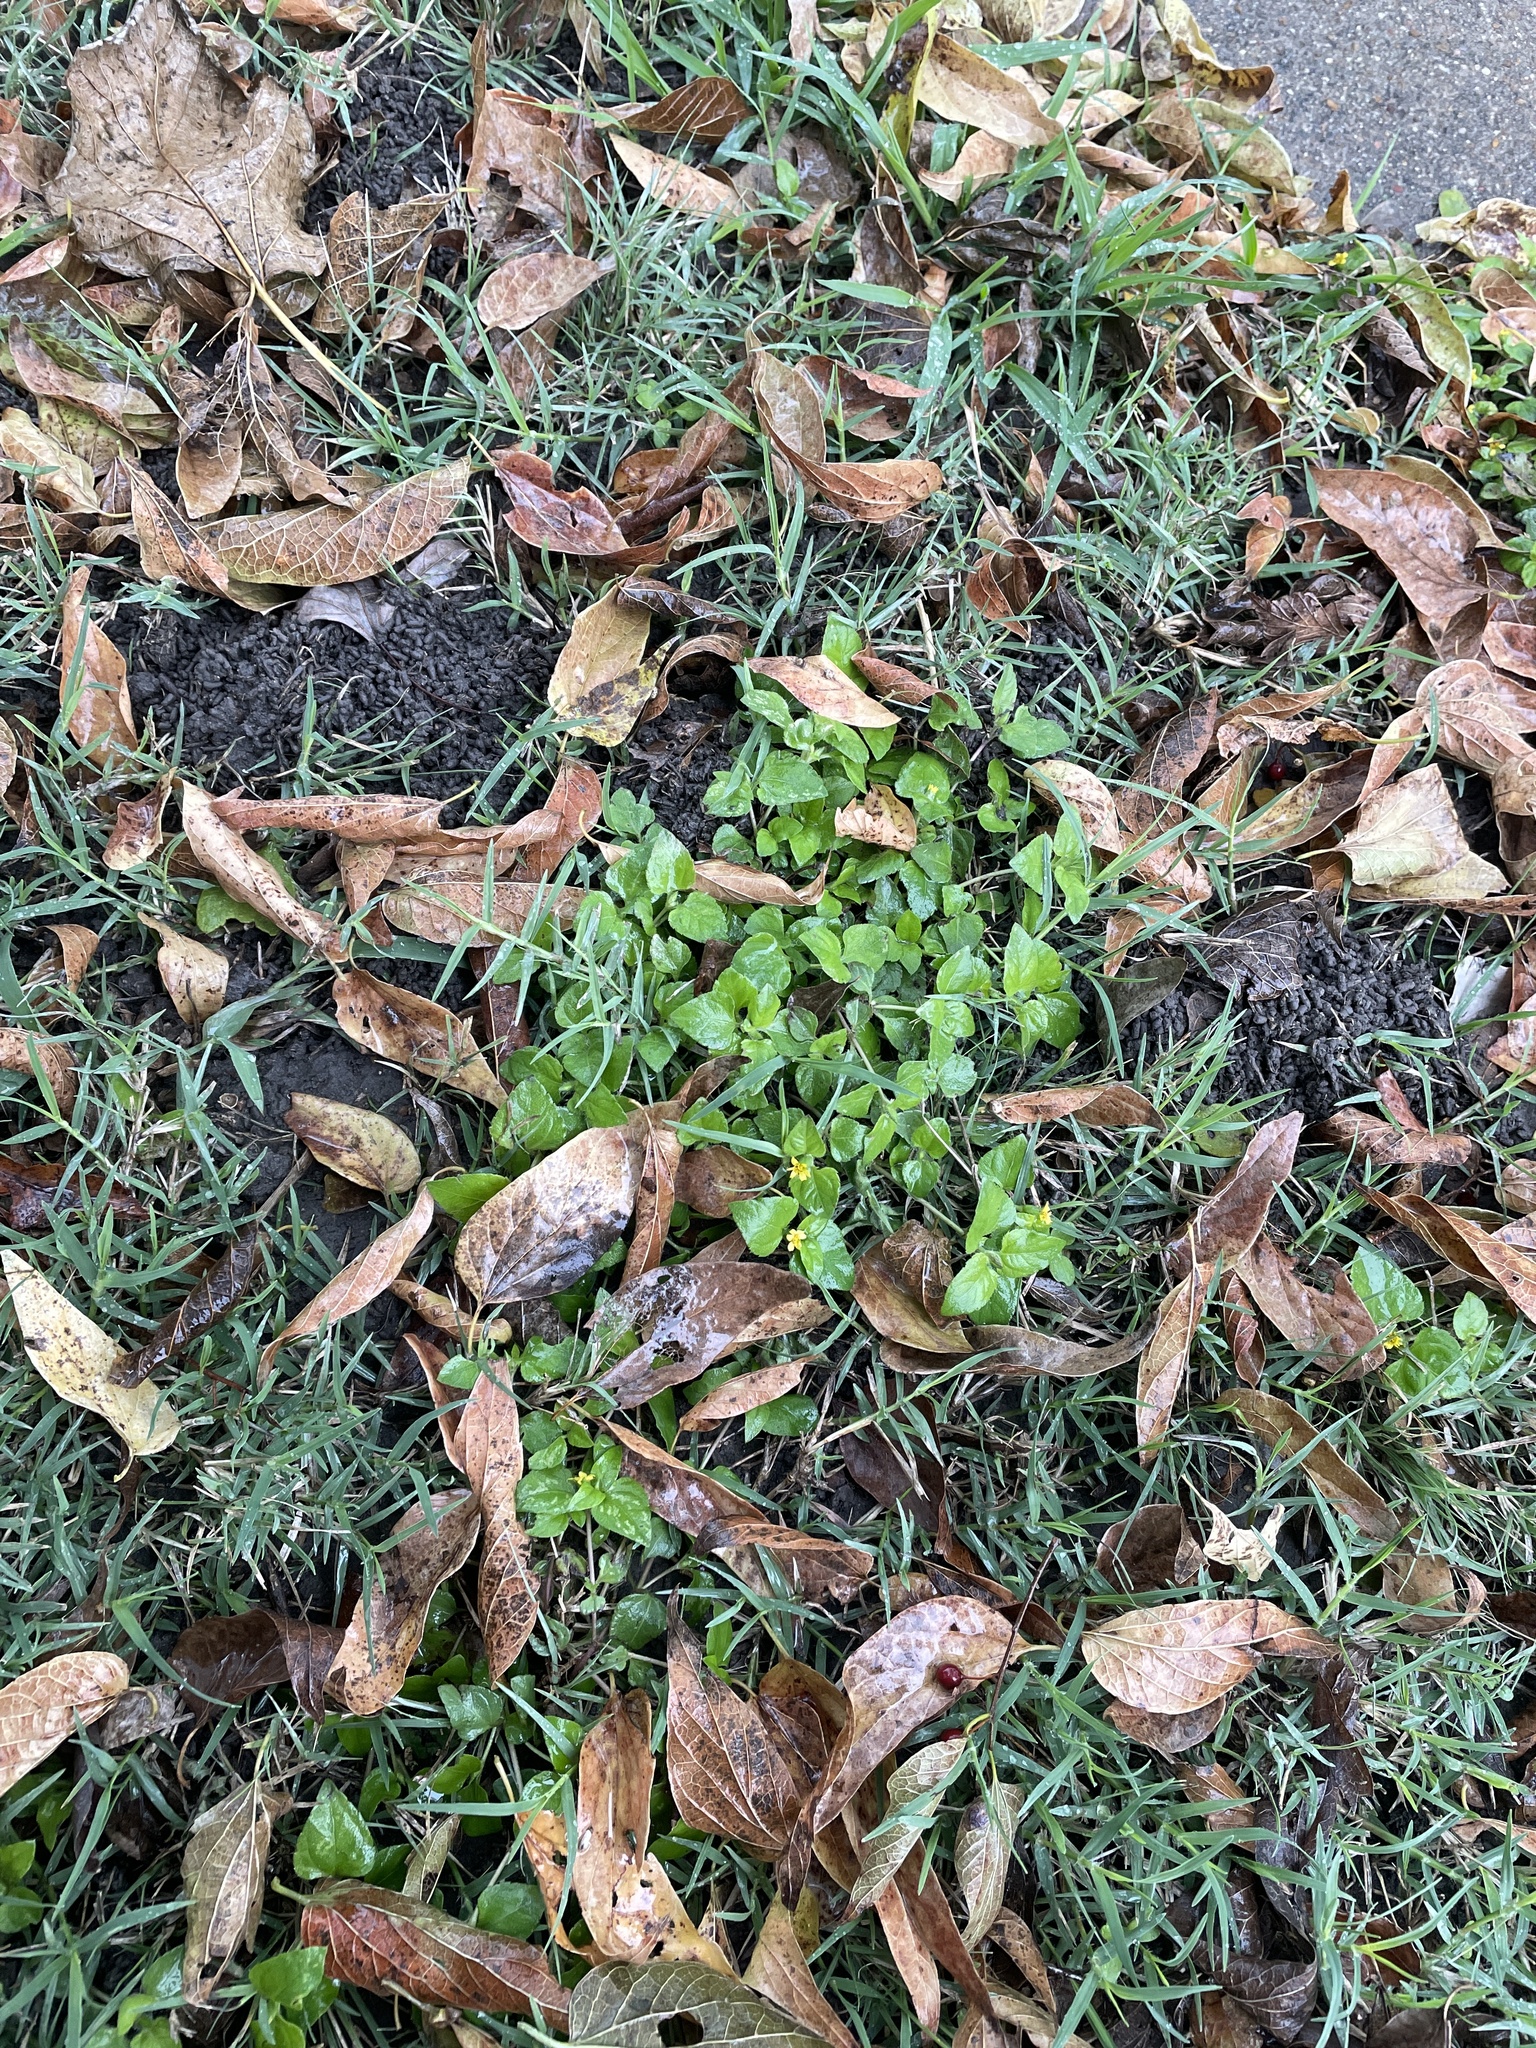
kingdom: Plantae
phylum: Tracheophyta
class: Magnoliopsida
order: Asterales
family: Asteraceae
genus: Calyptocarpus
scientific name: Calyptocarpus vialis
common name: Straggler daisy
